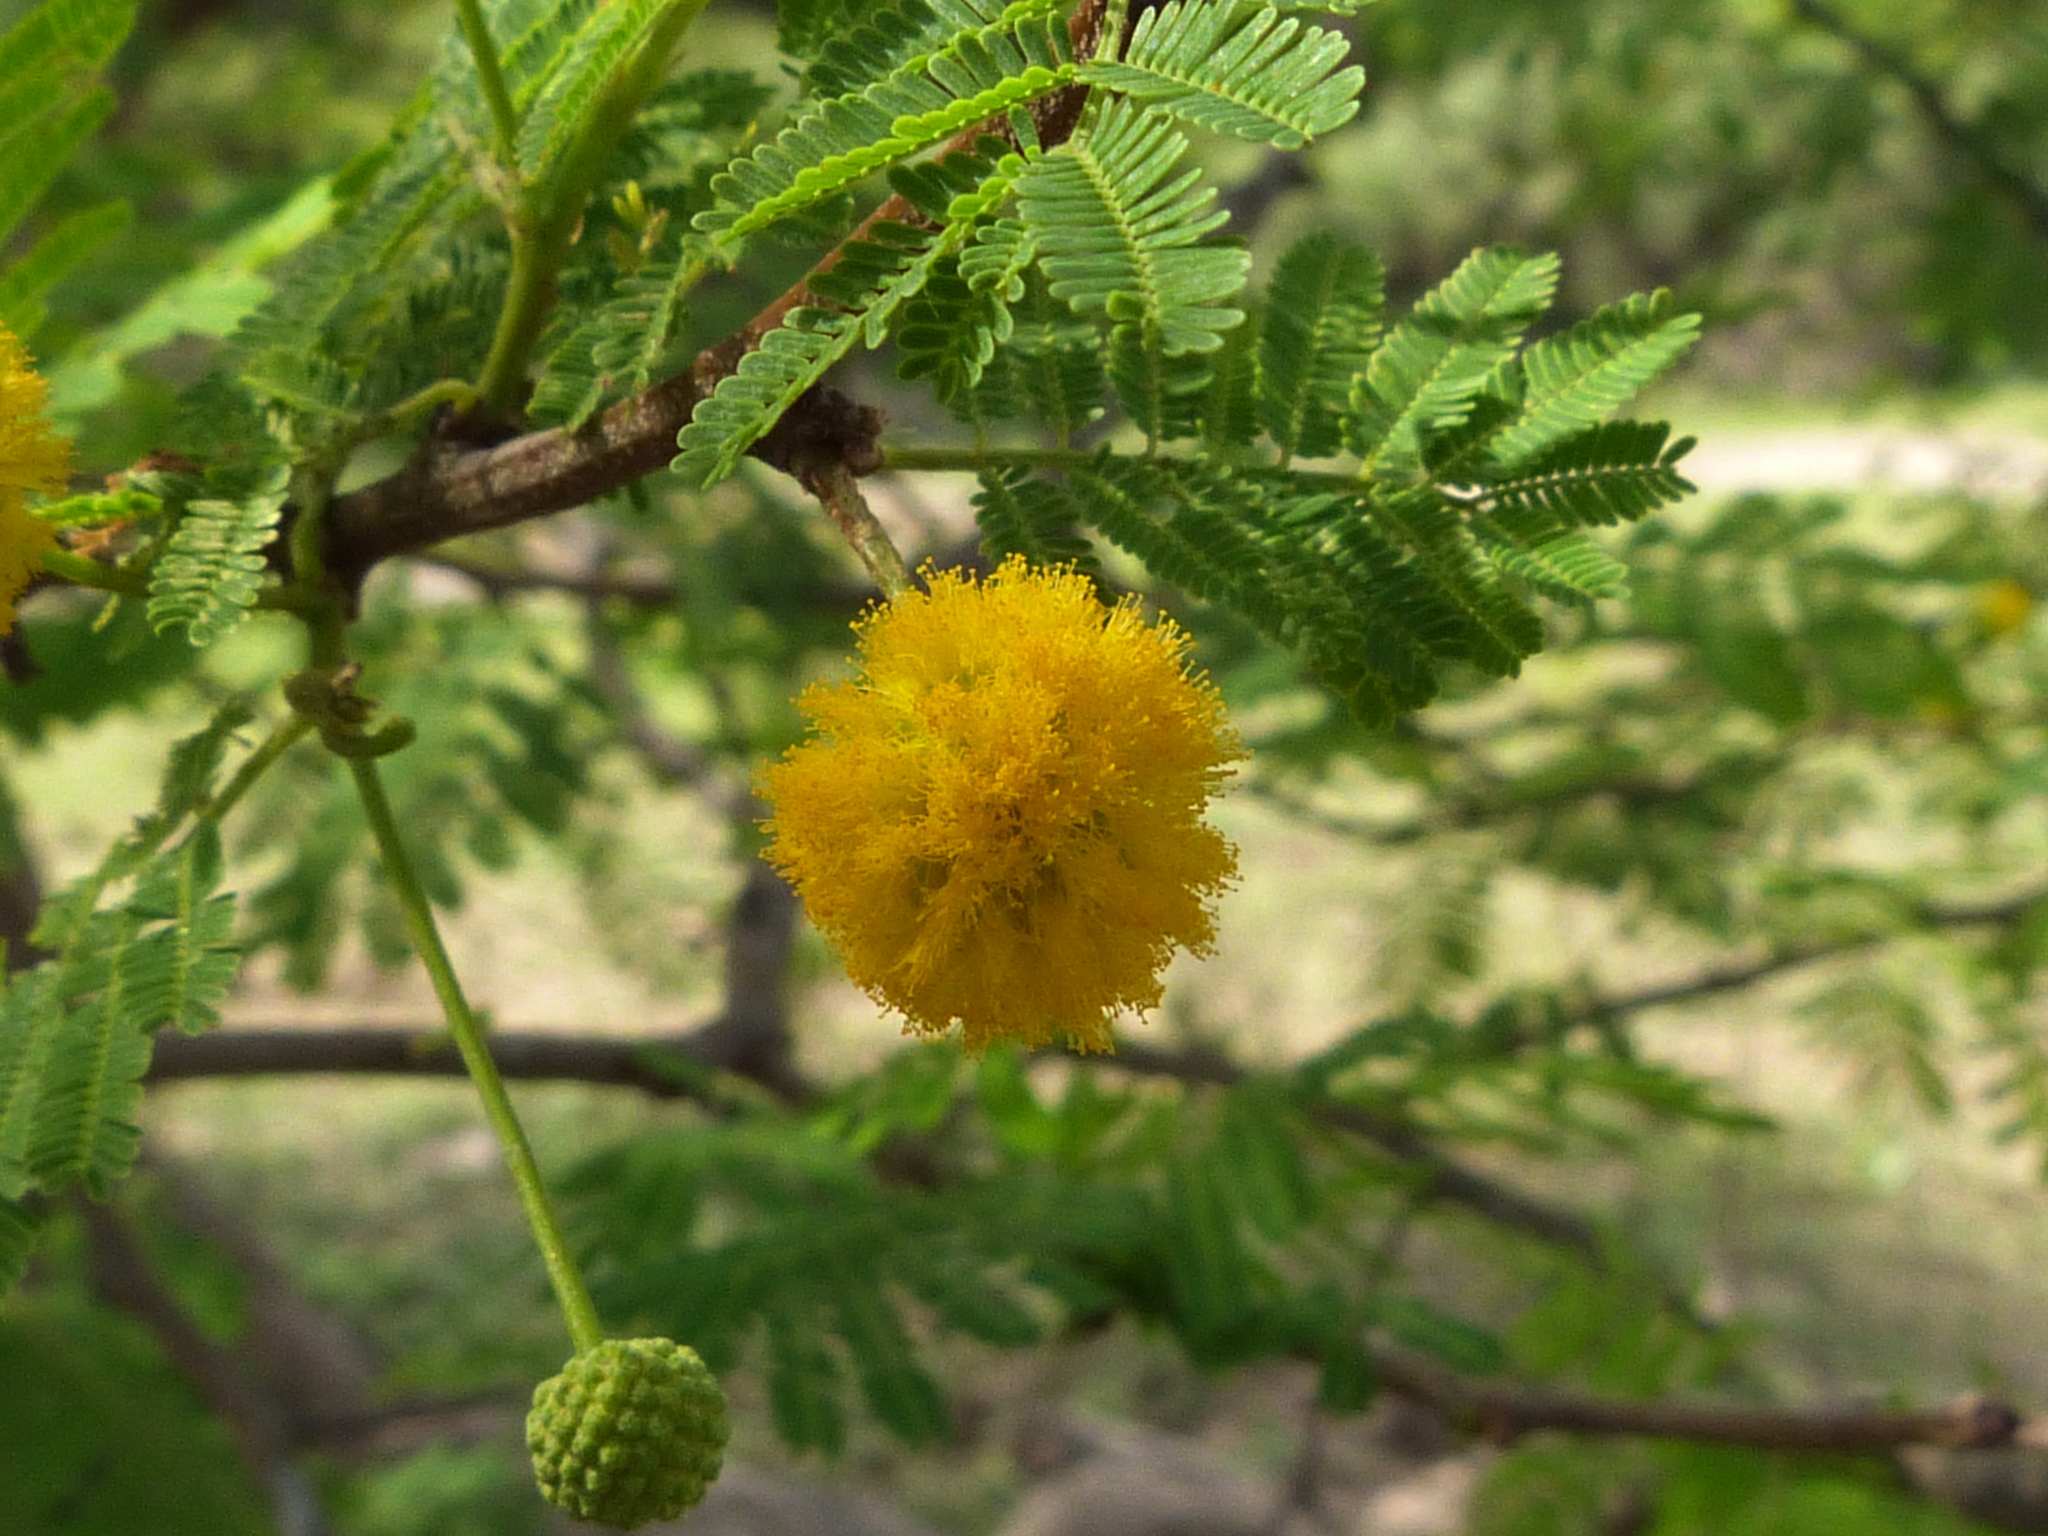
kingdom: Plantae
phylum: Tracheophyta
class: Magnoliopsida
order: Fabales
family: Fabaceae
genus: Vachellia
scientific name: Vachellia aroma
